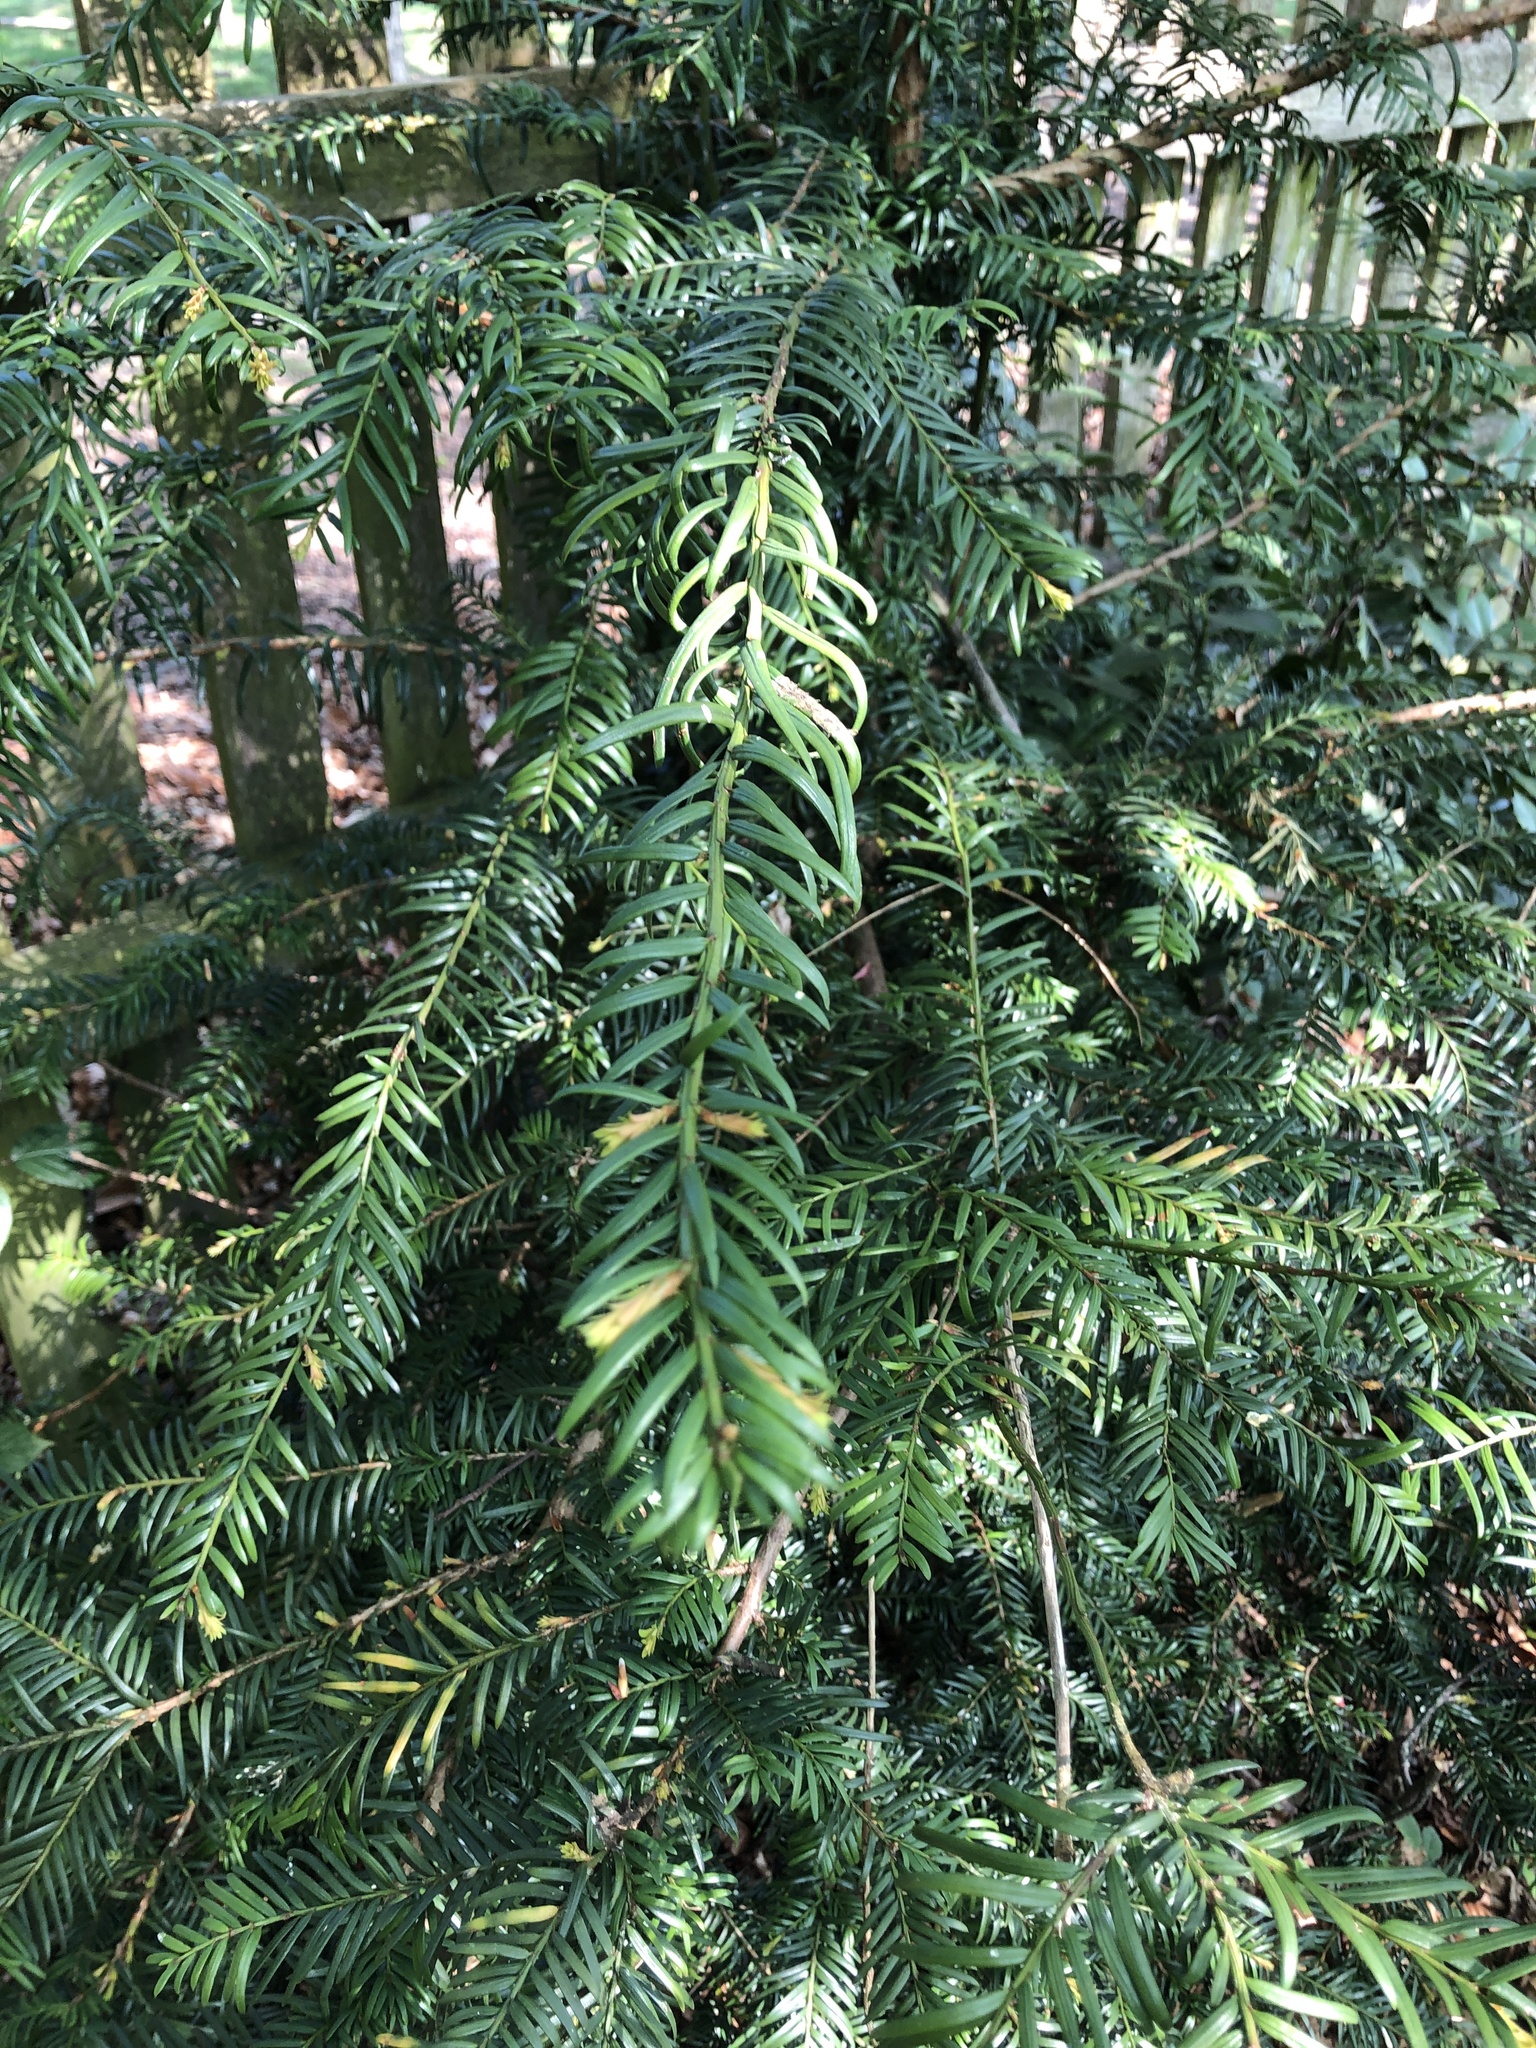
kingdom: Plantae
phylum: Tracheophyta
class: Pinopsida
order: Pinales
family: Taxaceae
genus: Taxus
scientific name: Taxus baccata
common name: Yew
